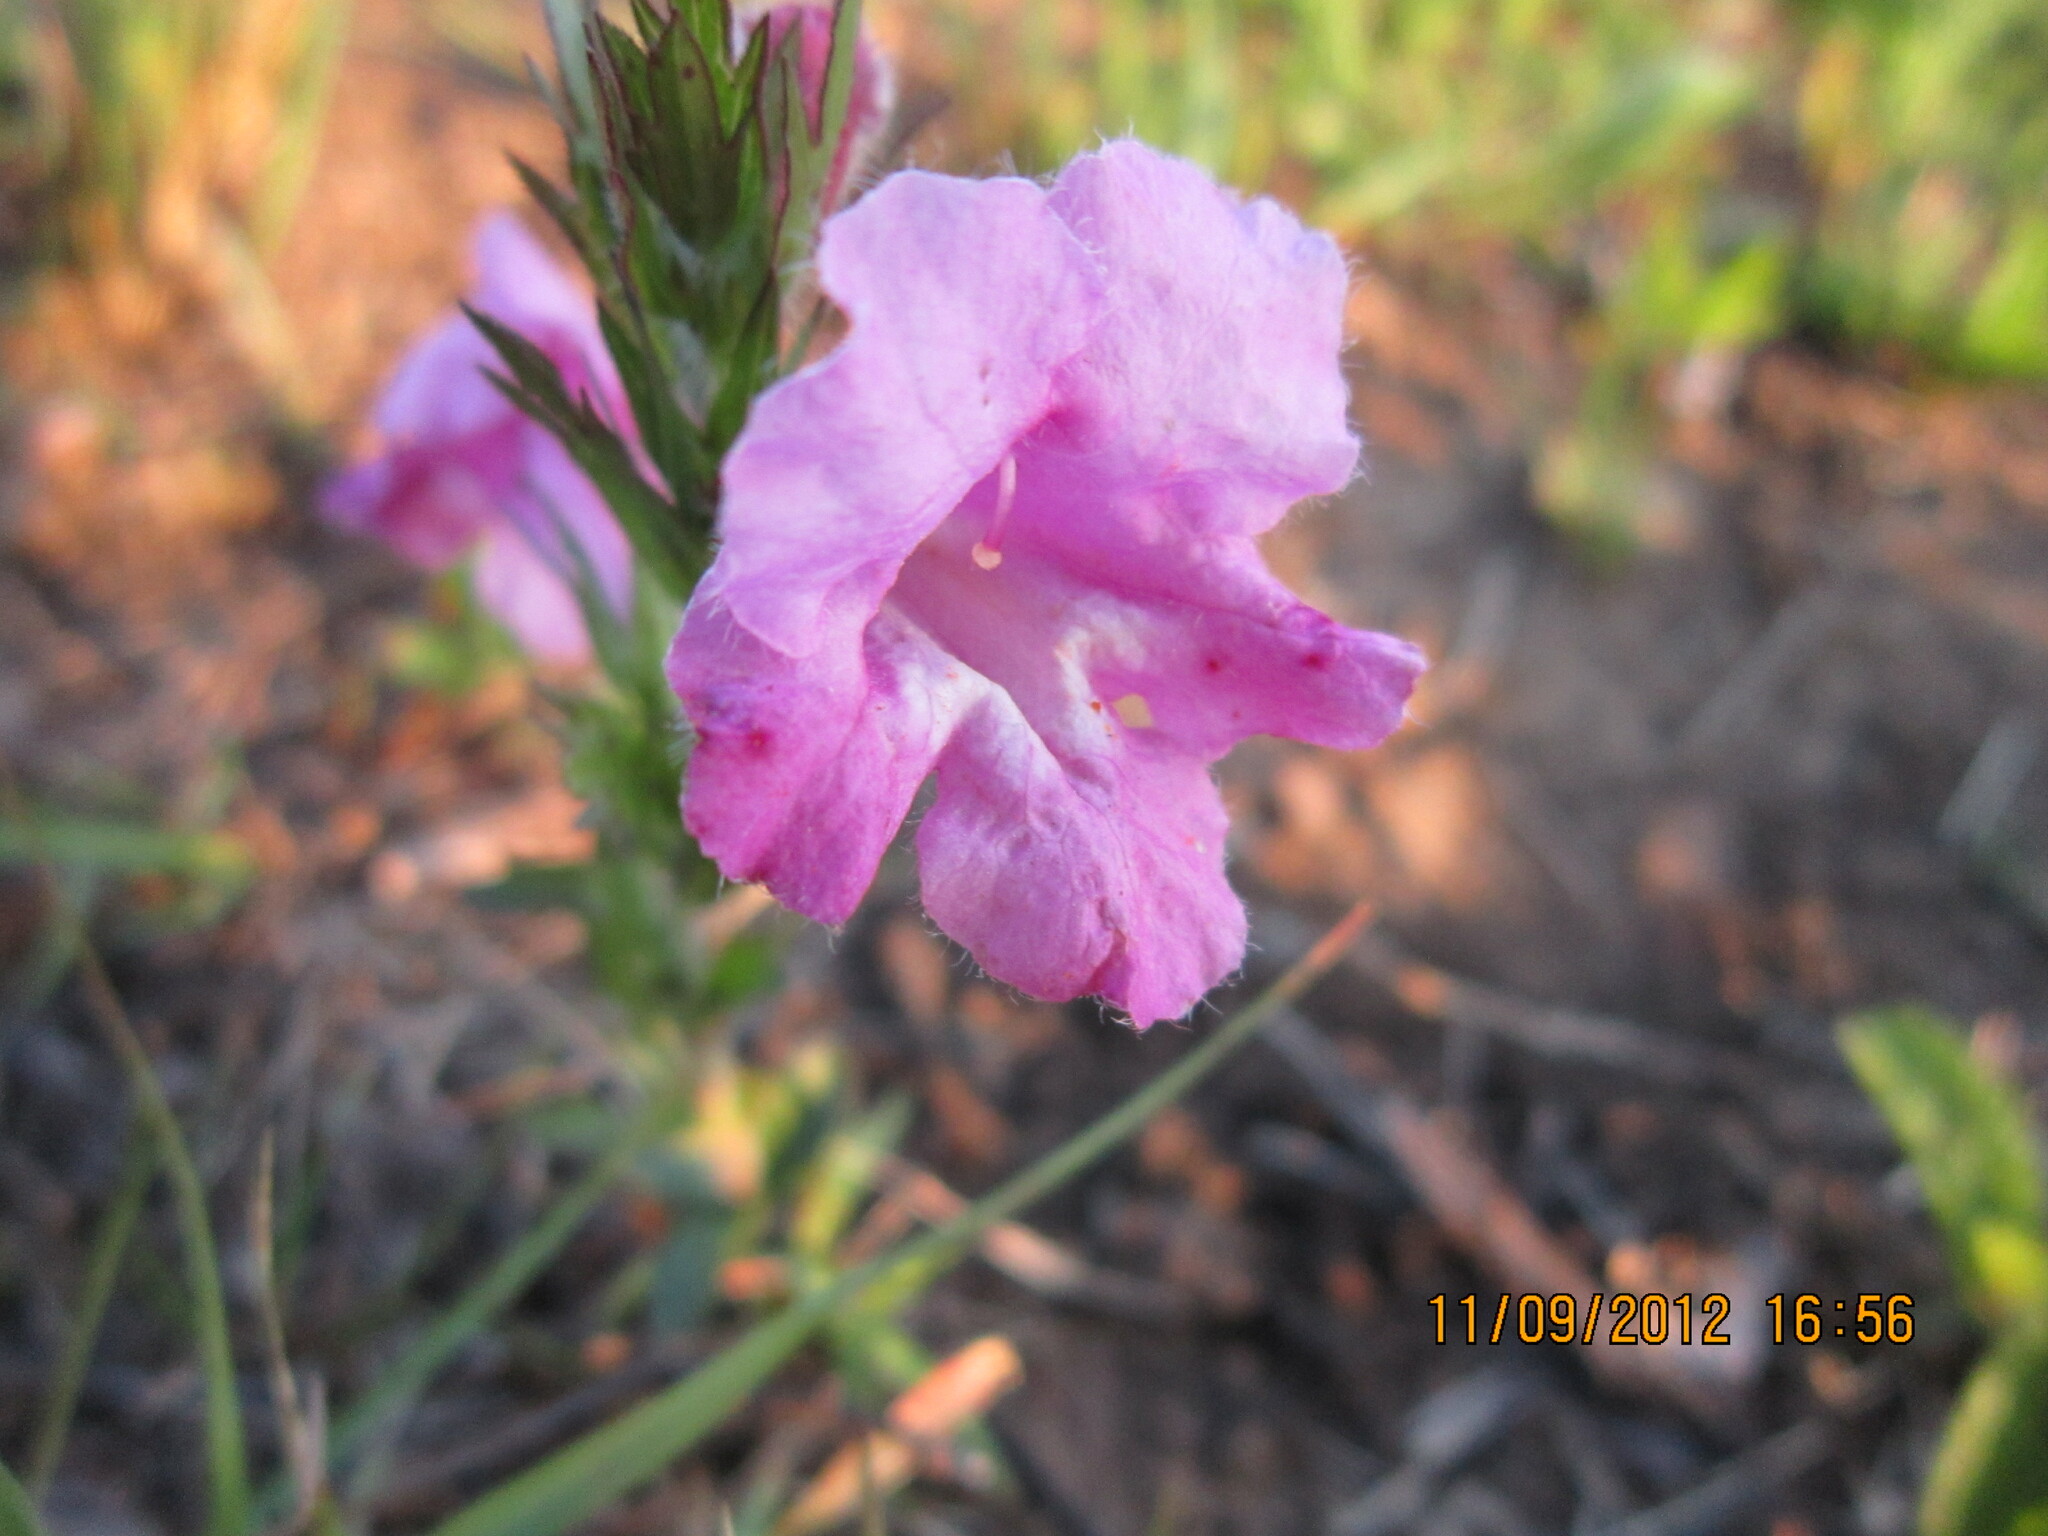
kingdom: Plantae
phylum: Tracheophyta
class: Magnoliopsida
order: Lamiales
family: Orobanchaceae
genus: Graderia
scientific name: Graderia scabra
